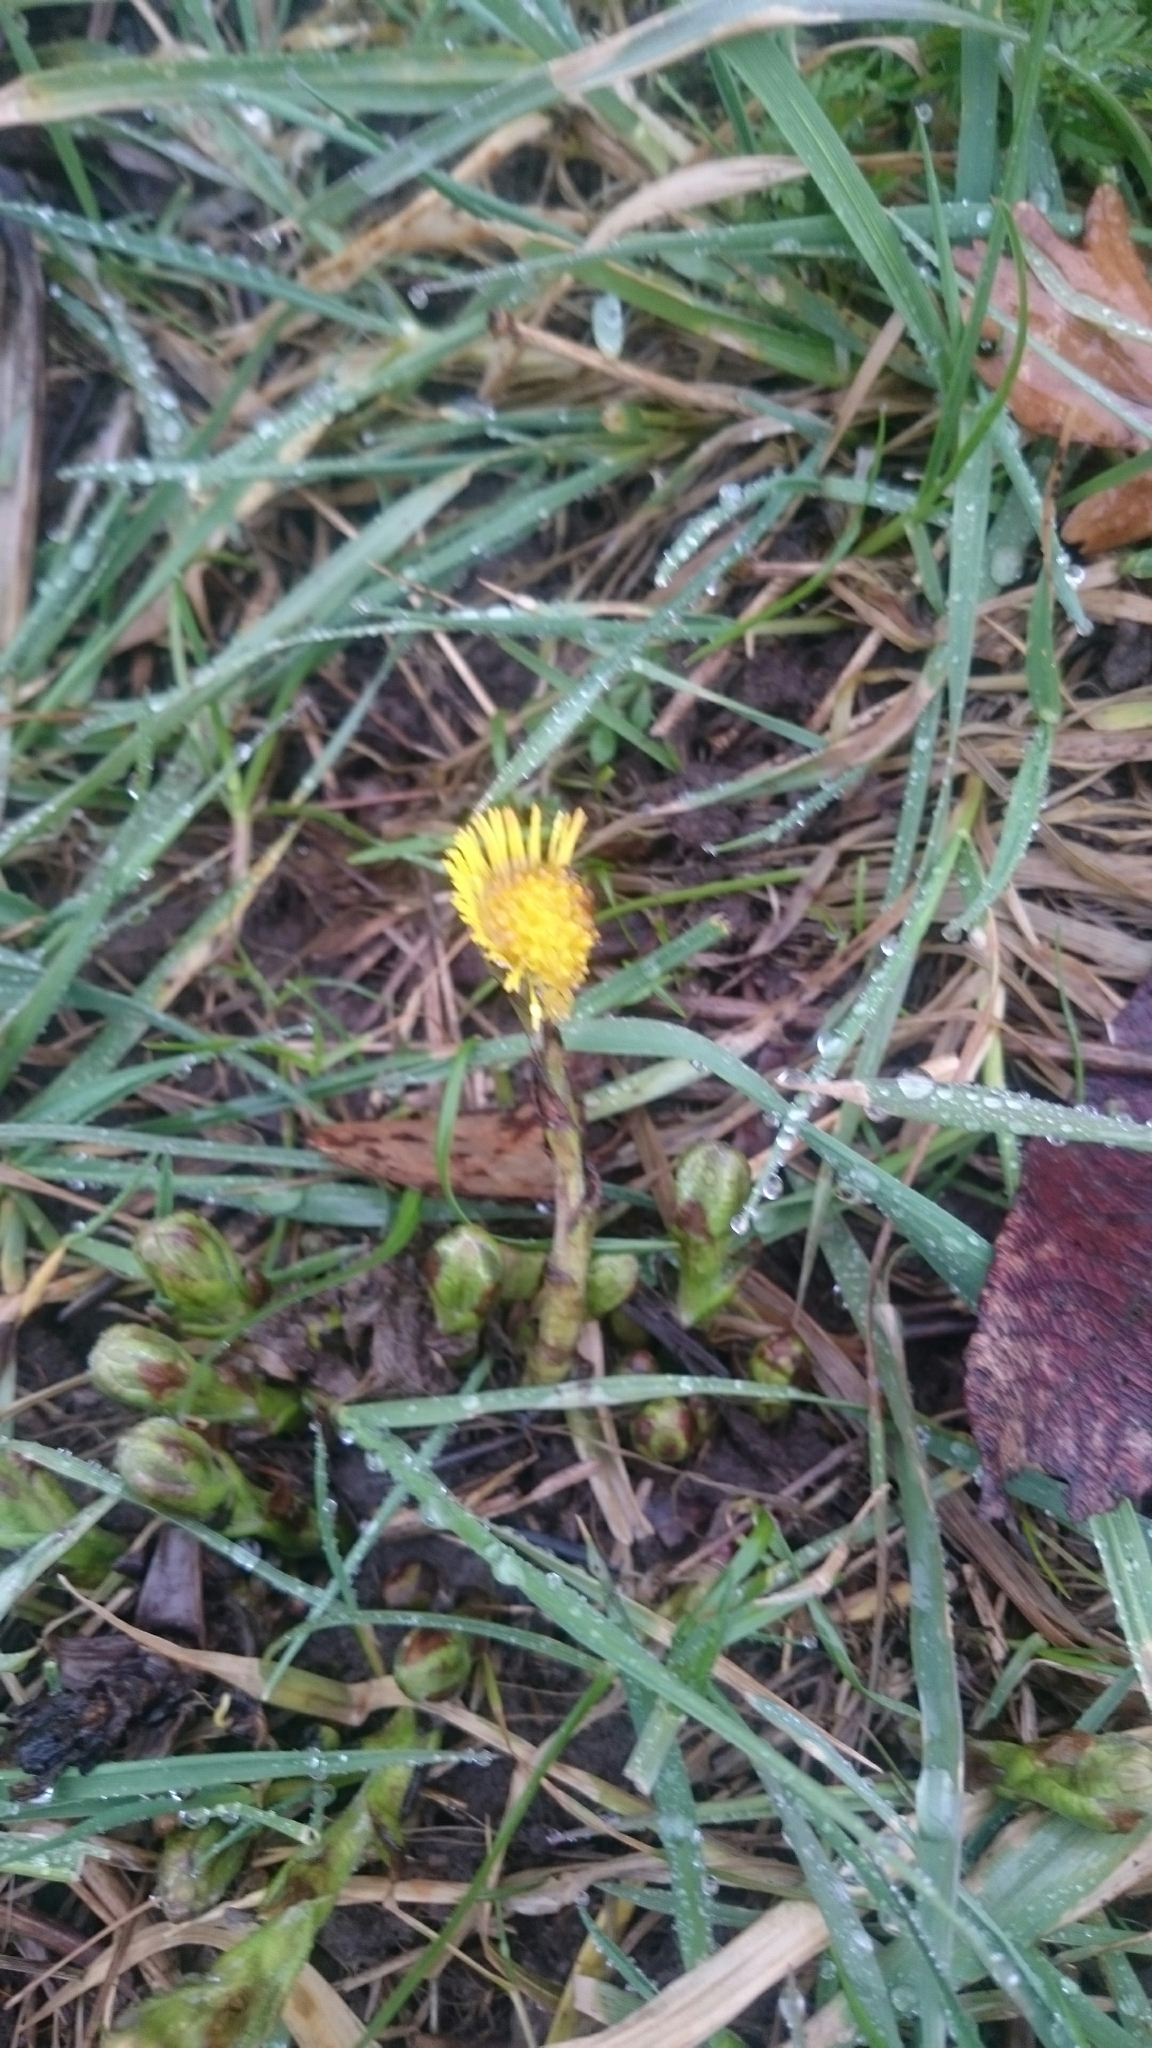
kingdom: Plantae
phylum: Tracheophyta
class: Magnoliopsida
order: Asterales
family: Asteraceae
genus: Tussilago
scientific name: Tussilago farfara
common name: Coltsfoot
